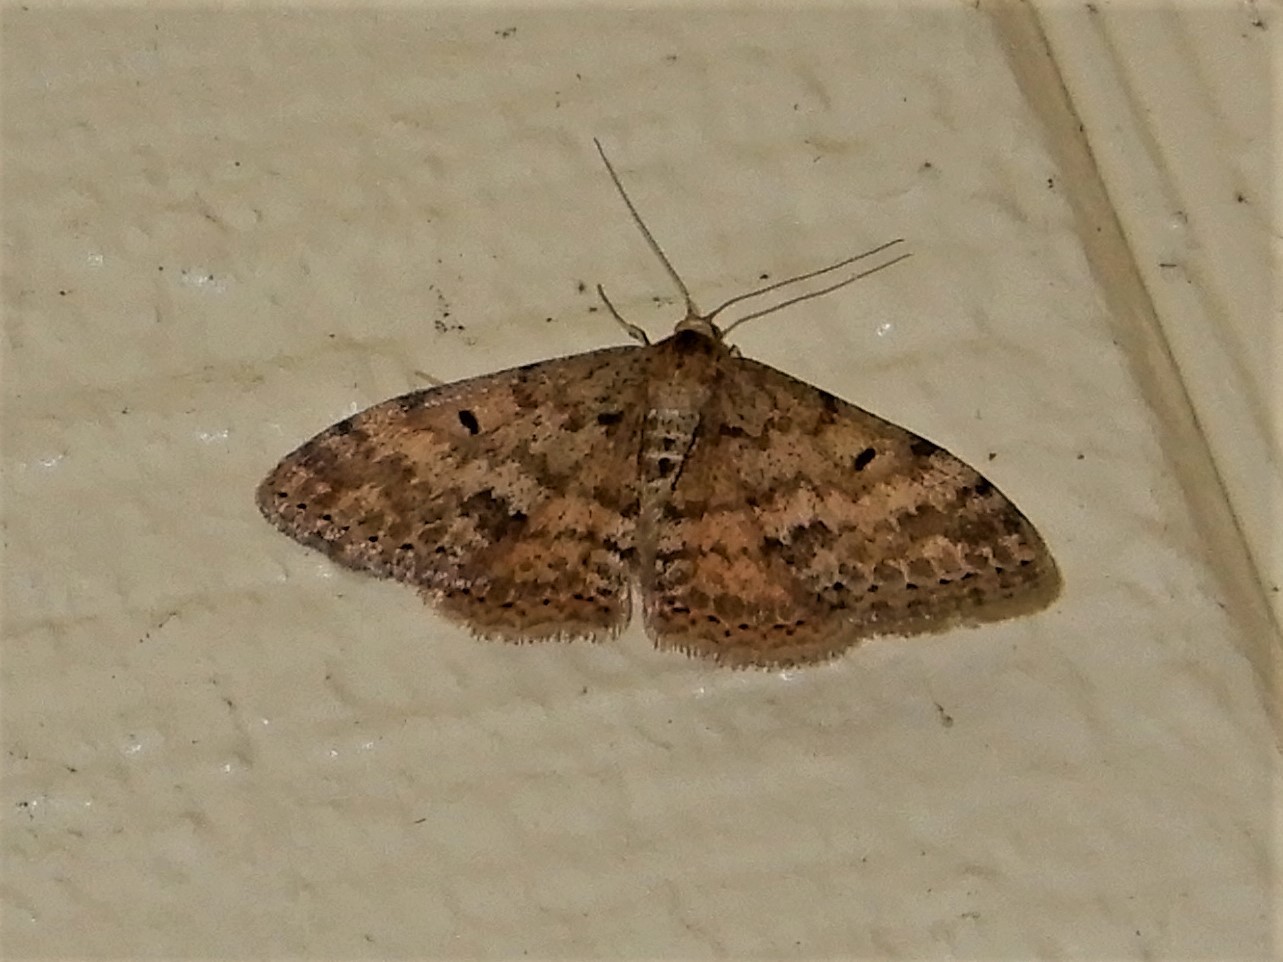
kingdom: Animalia
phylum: Arthropoda
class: Insecta
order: Lepidoptera
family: Geometridae
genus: Scopula
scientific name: Scopula rubraria
